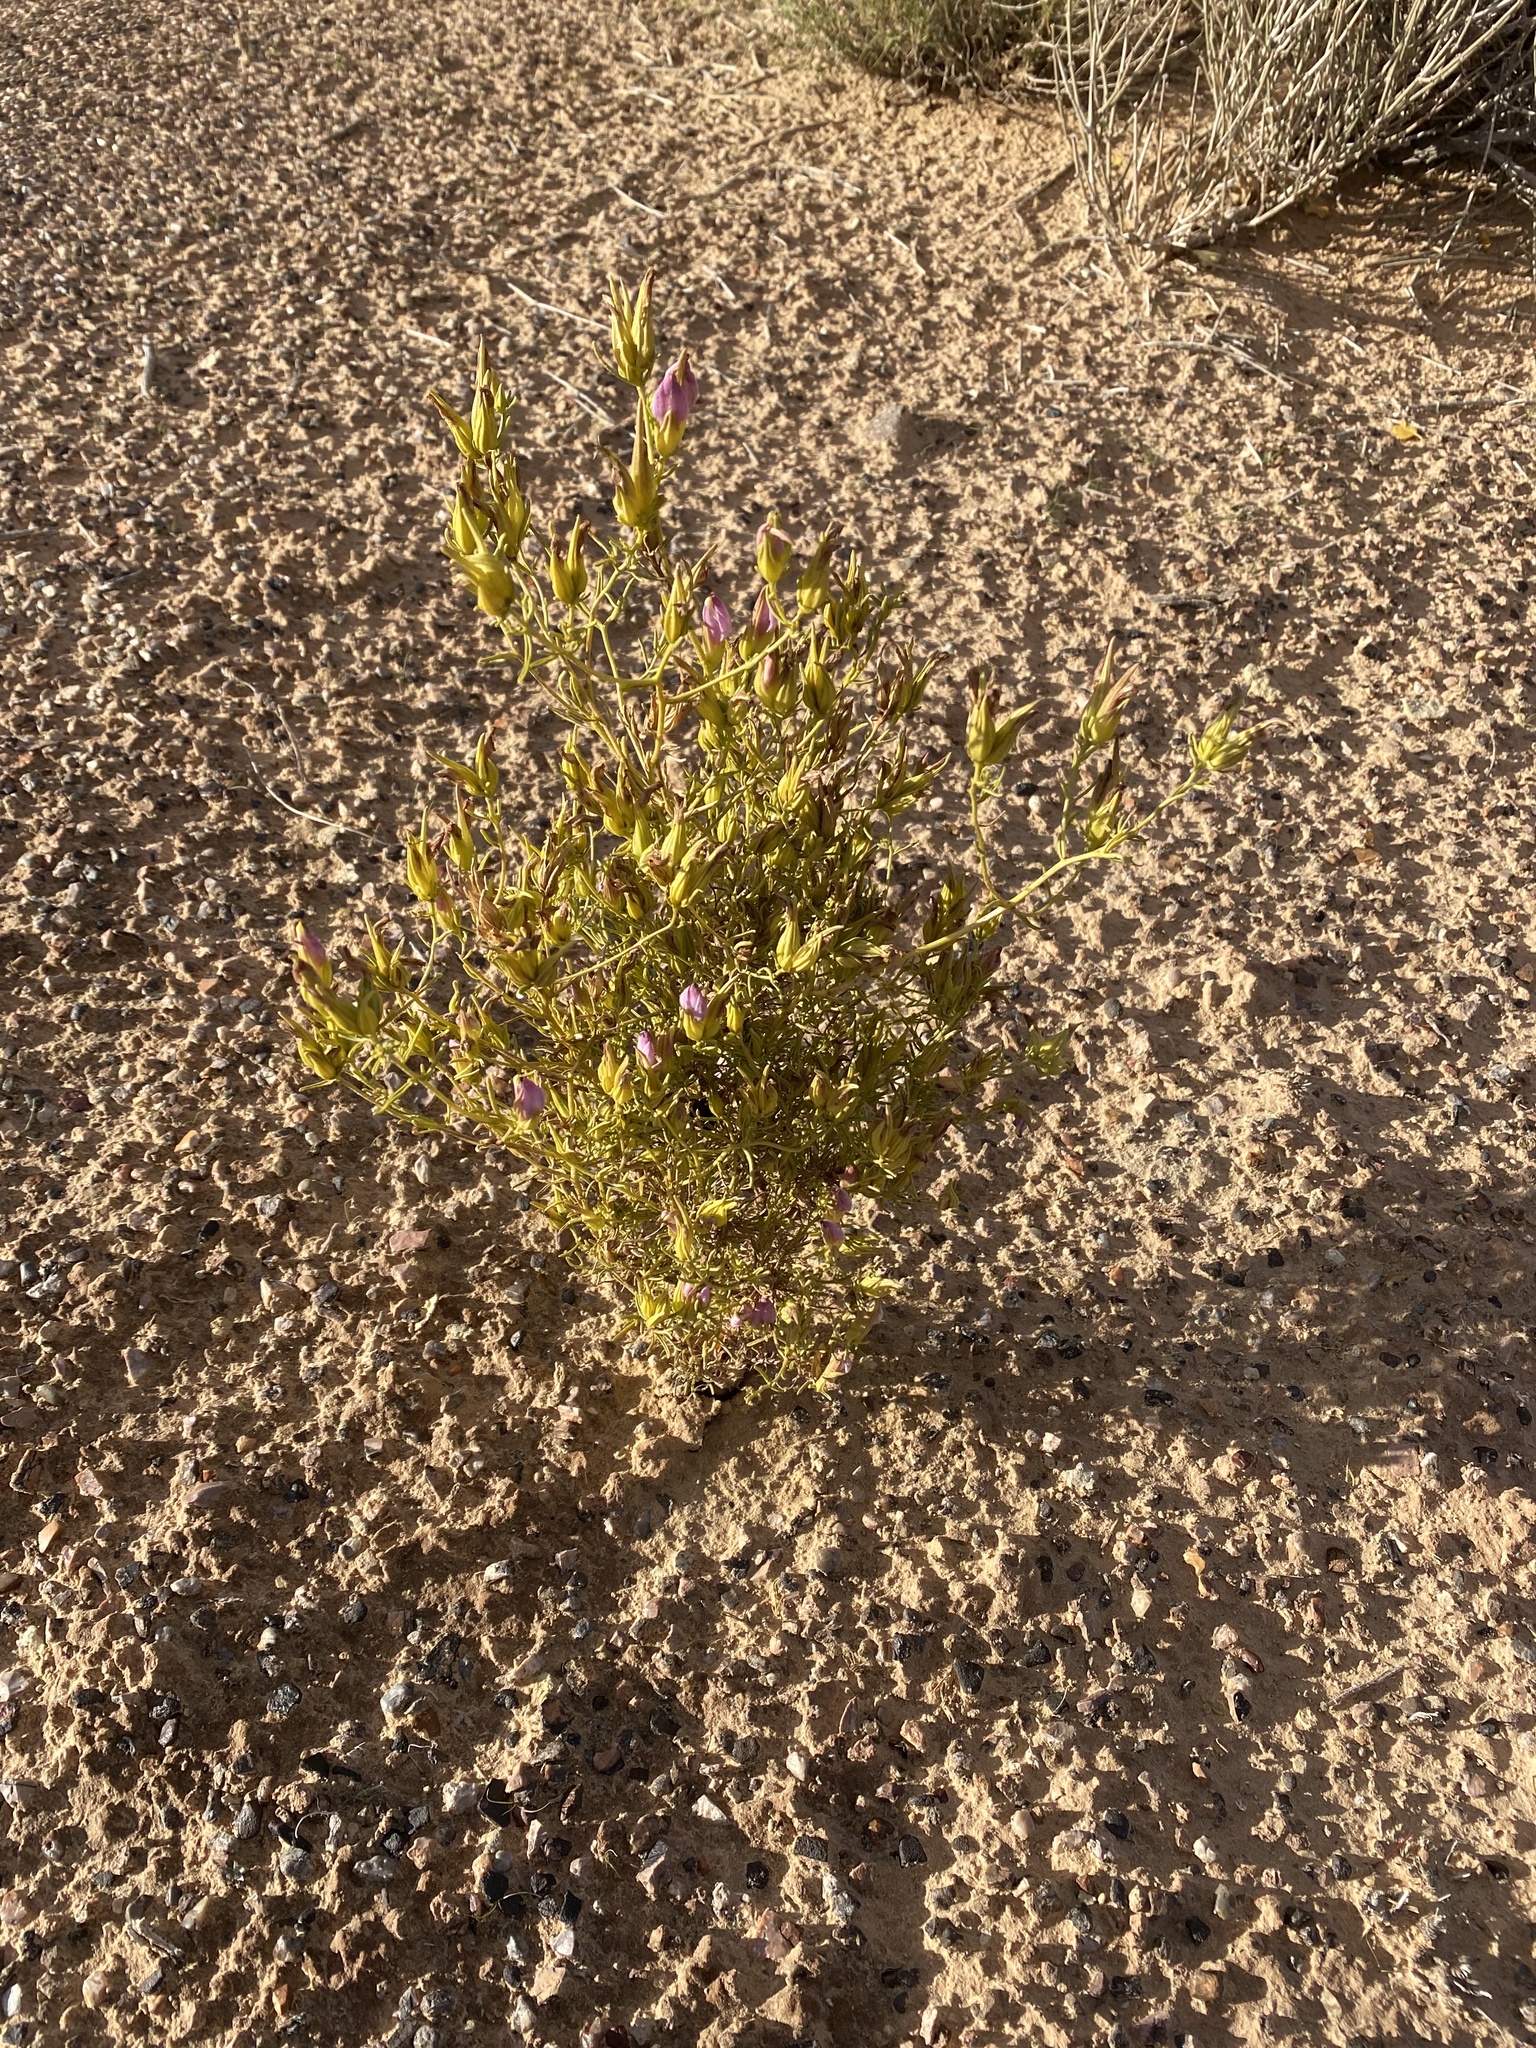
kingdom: Plantae
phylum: Tracheophyta
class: Magnoliopsida
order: Lamiales
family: Orobanchaceae
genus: Cordylanthus
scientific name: Cordylanthus wrightii
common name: Wright's birdsbeak
